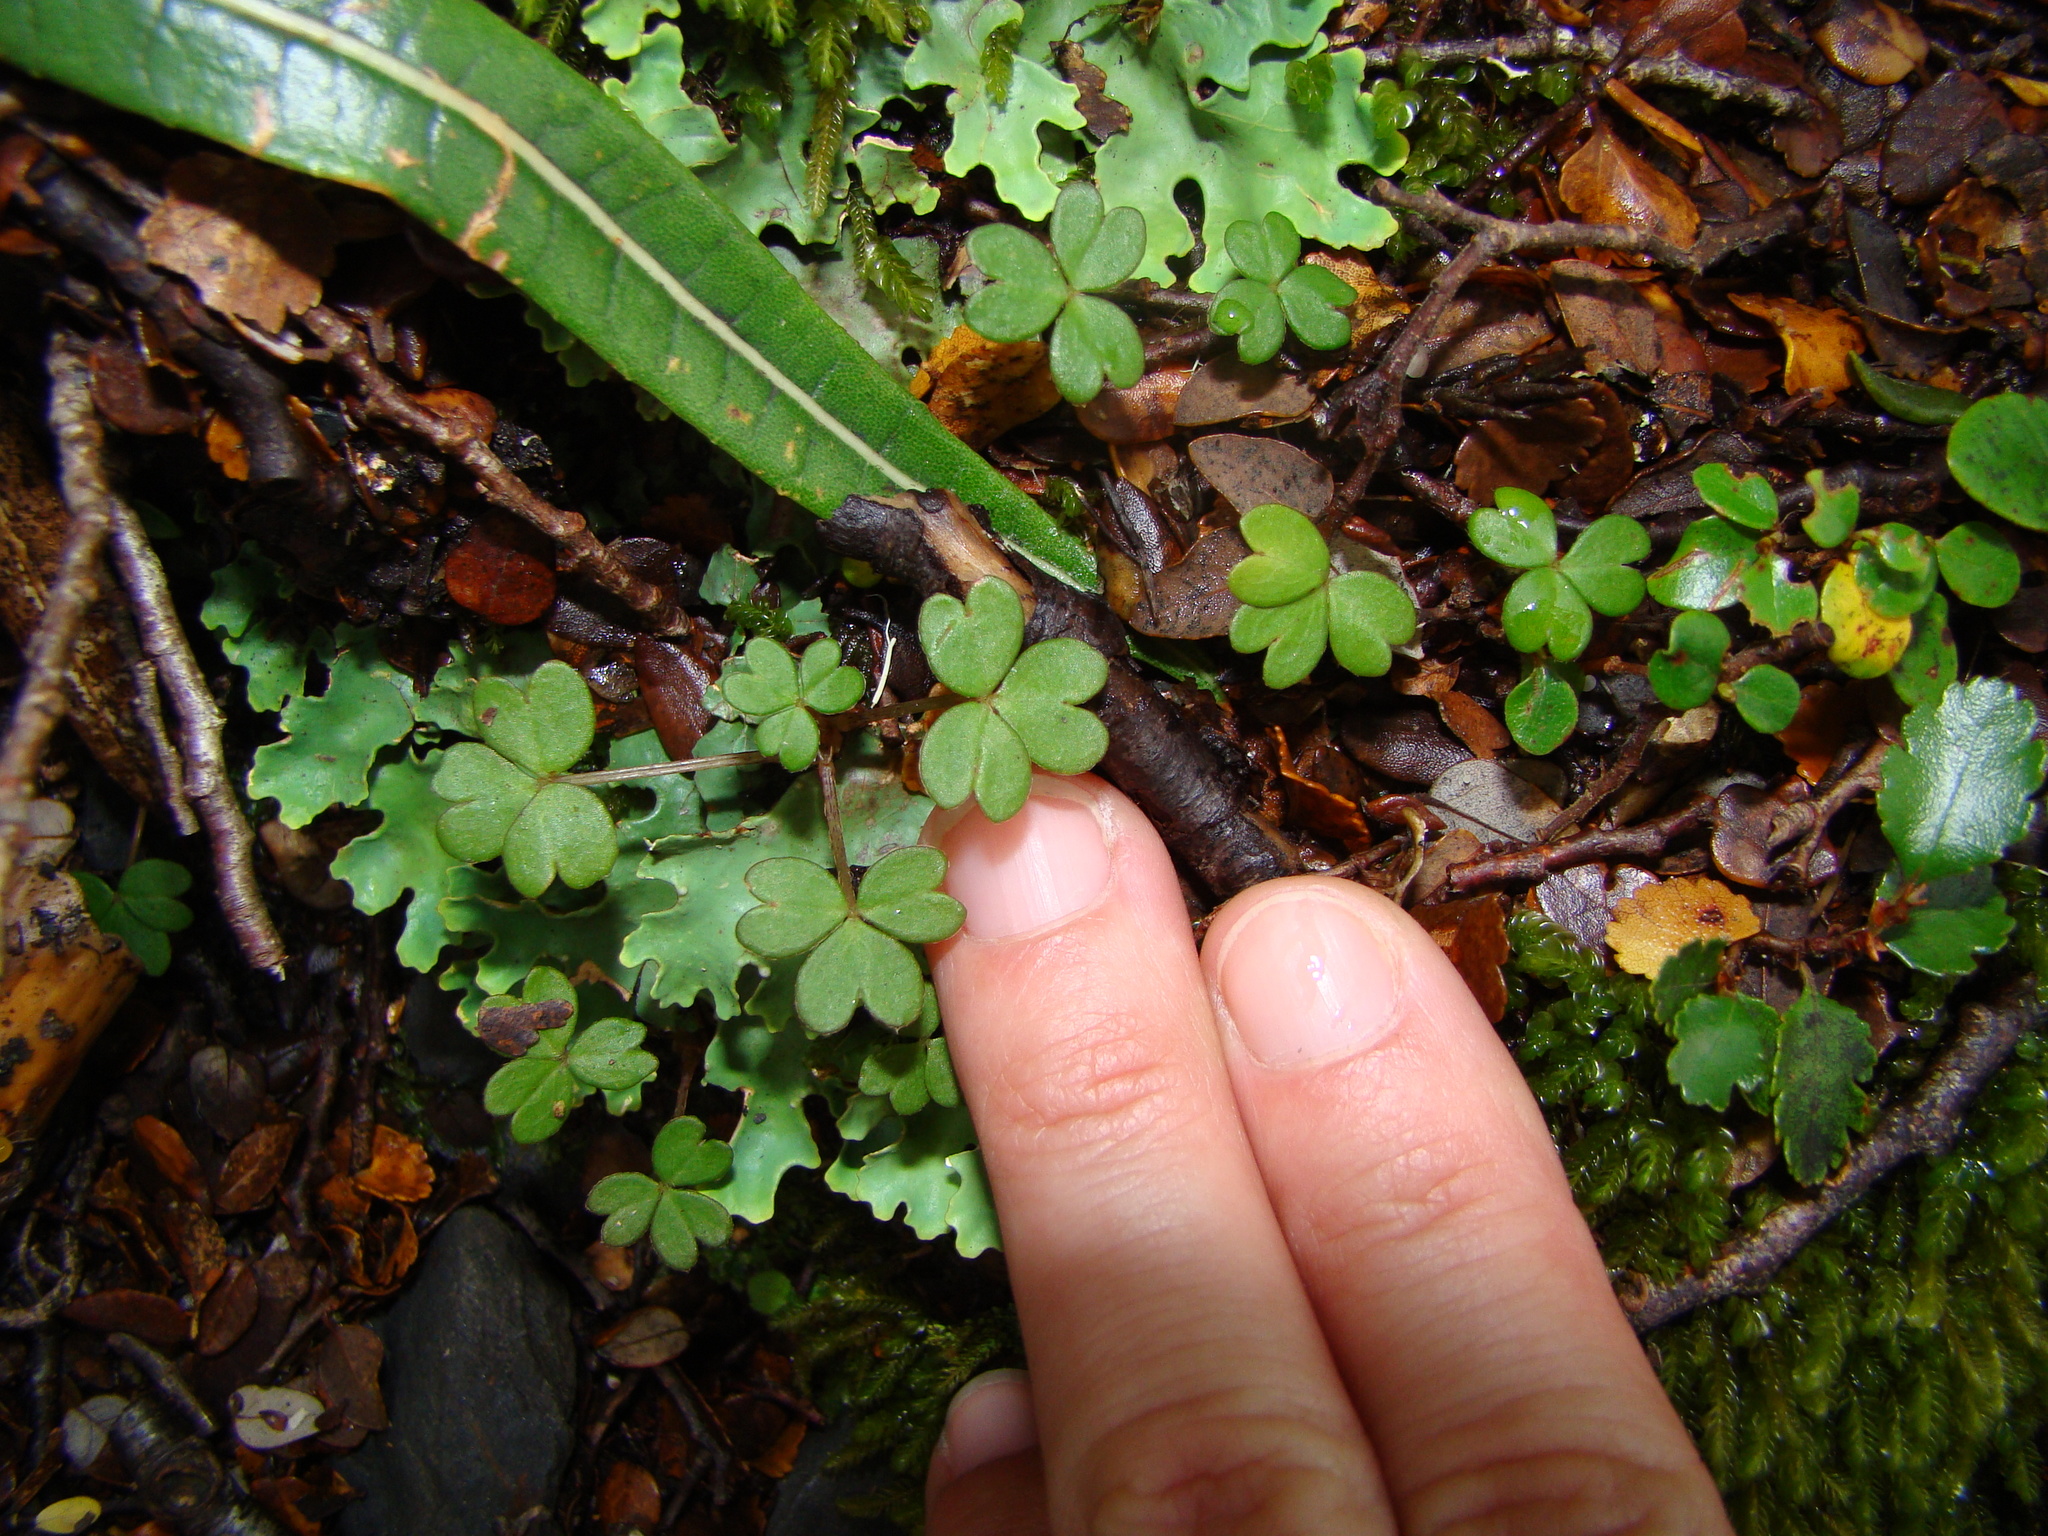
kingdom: Plantae
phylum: Tracheophyta
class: Magnoliopsida
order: Oxalidales
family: Oxalidaceae
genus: Oxalis
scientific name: Oxalis magellanica
